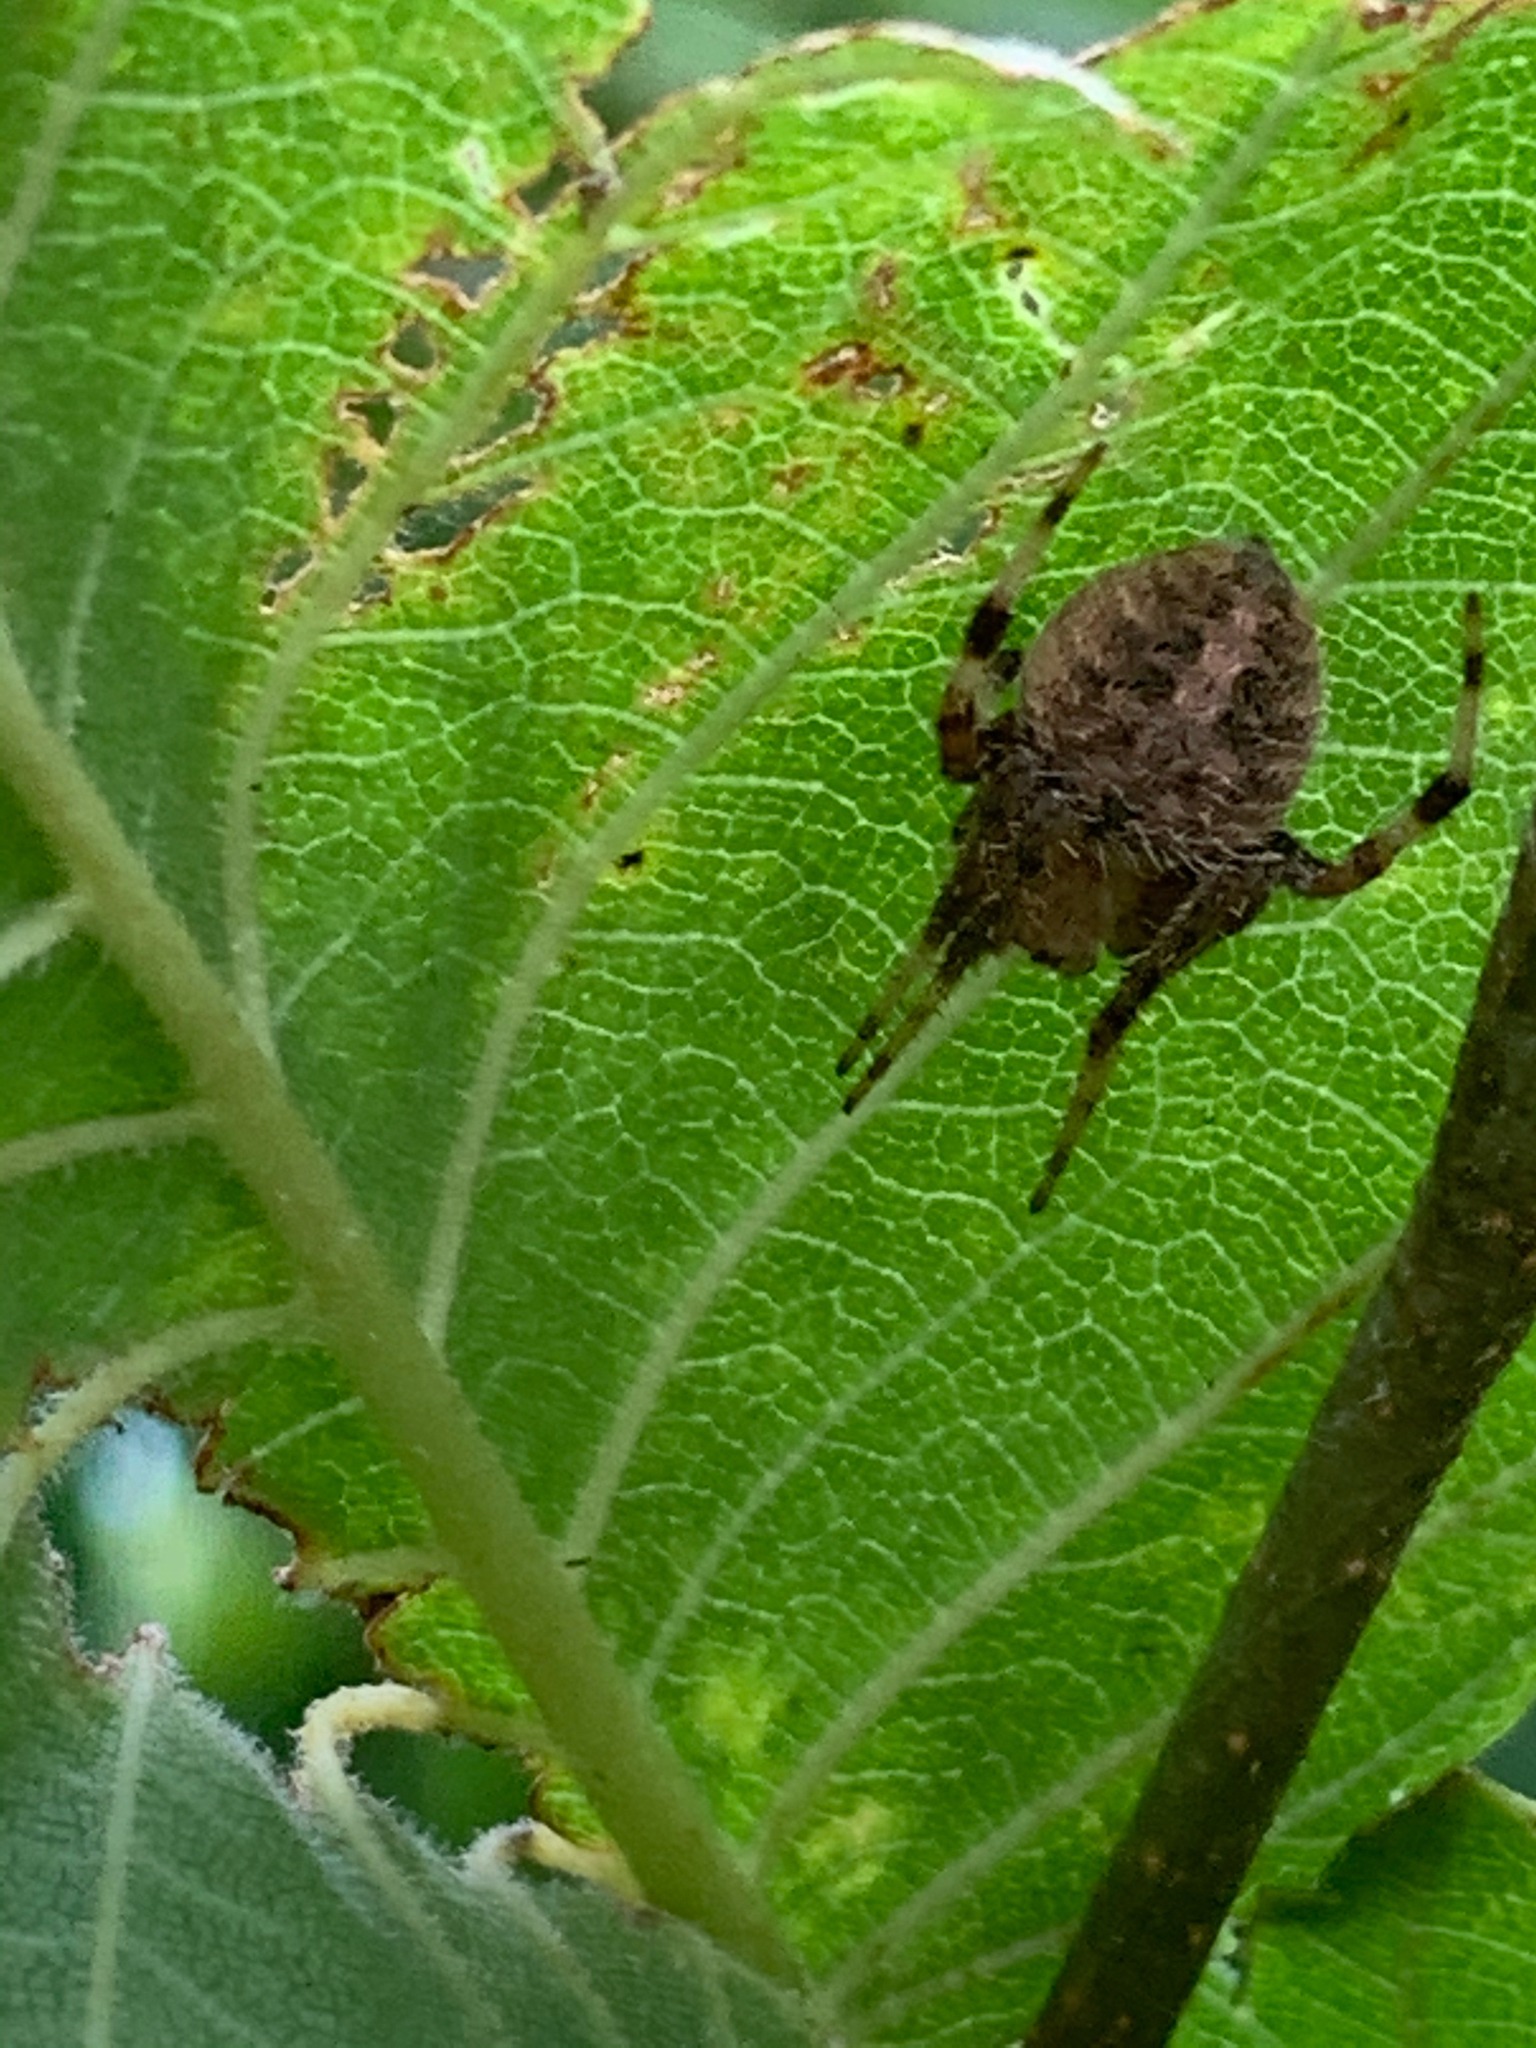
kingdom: Animalia
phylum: Arthropoda
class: Arachnida
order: Araneae
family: Araneidae
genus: Neoscona
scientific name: Neoscona
